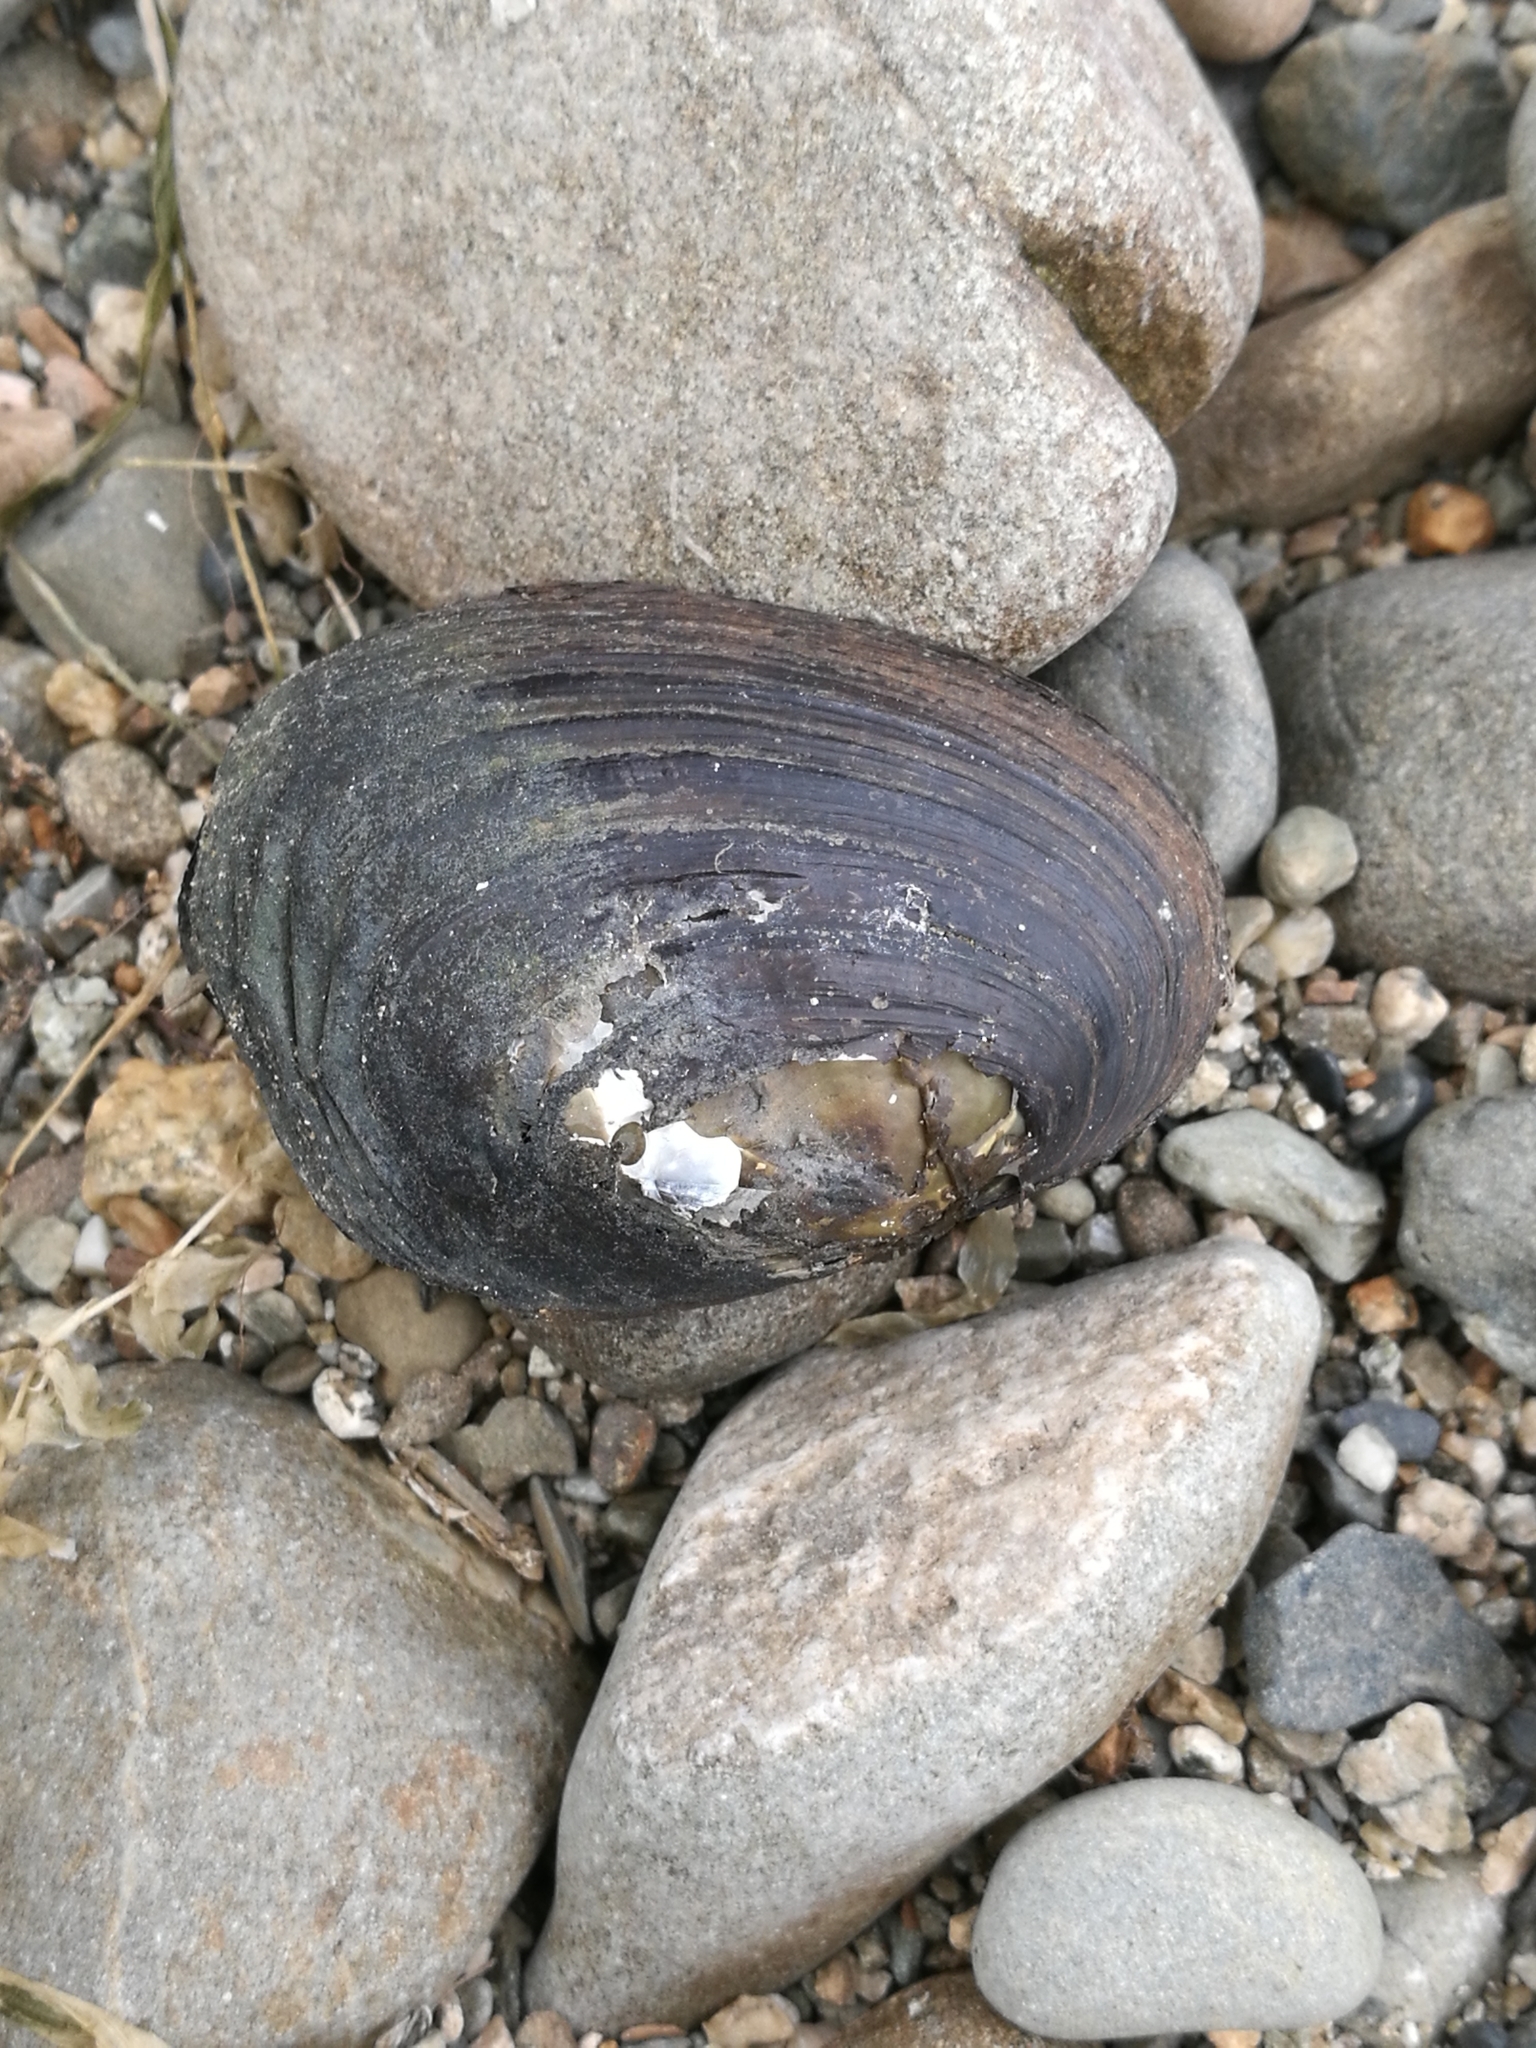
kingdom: Animalia
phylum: Mollusca
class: Bivalvia
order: Unionida
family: Hyriidae
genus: Echyridella
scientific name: Echyridella menziesii
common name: New zealand freshwater mussel
